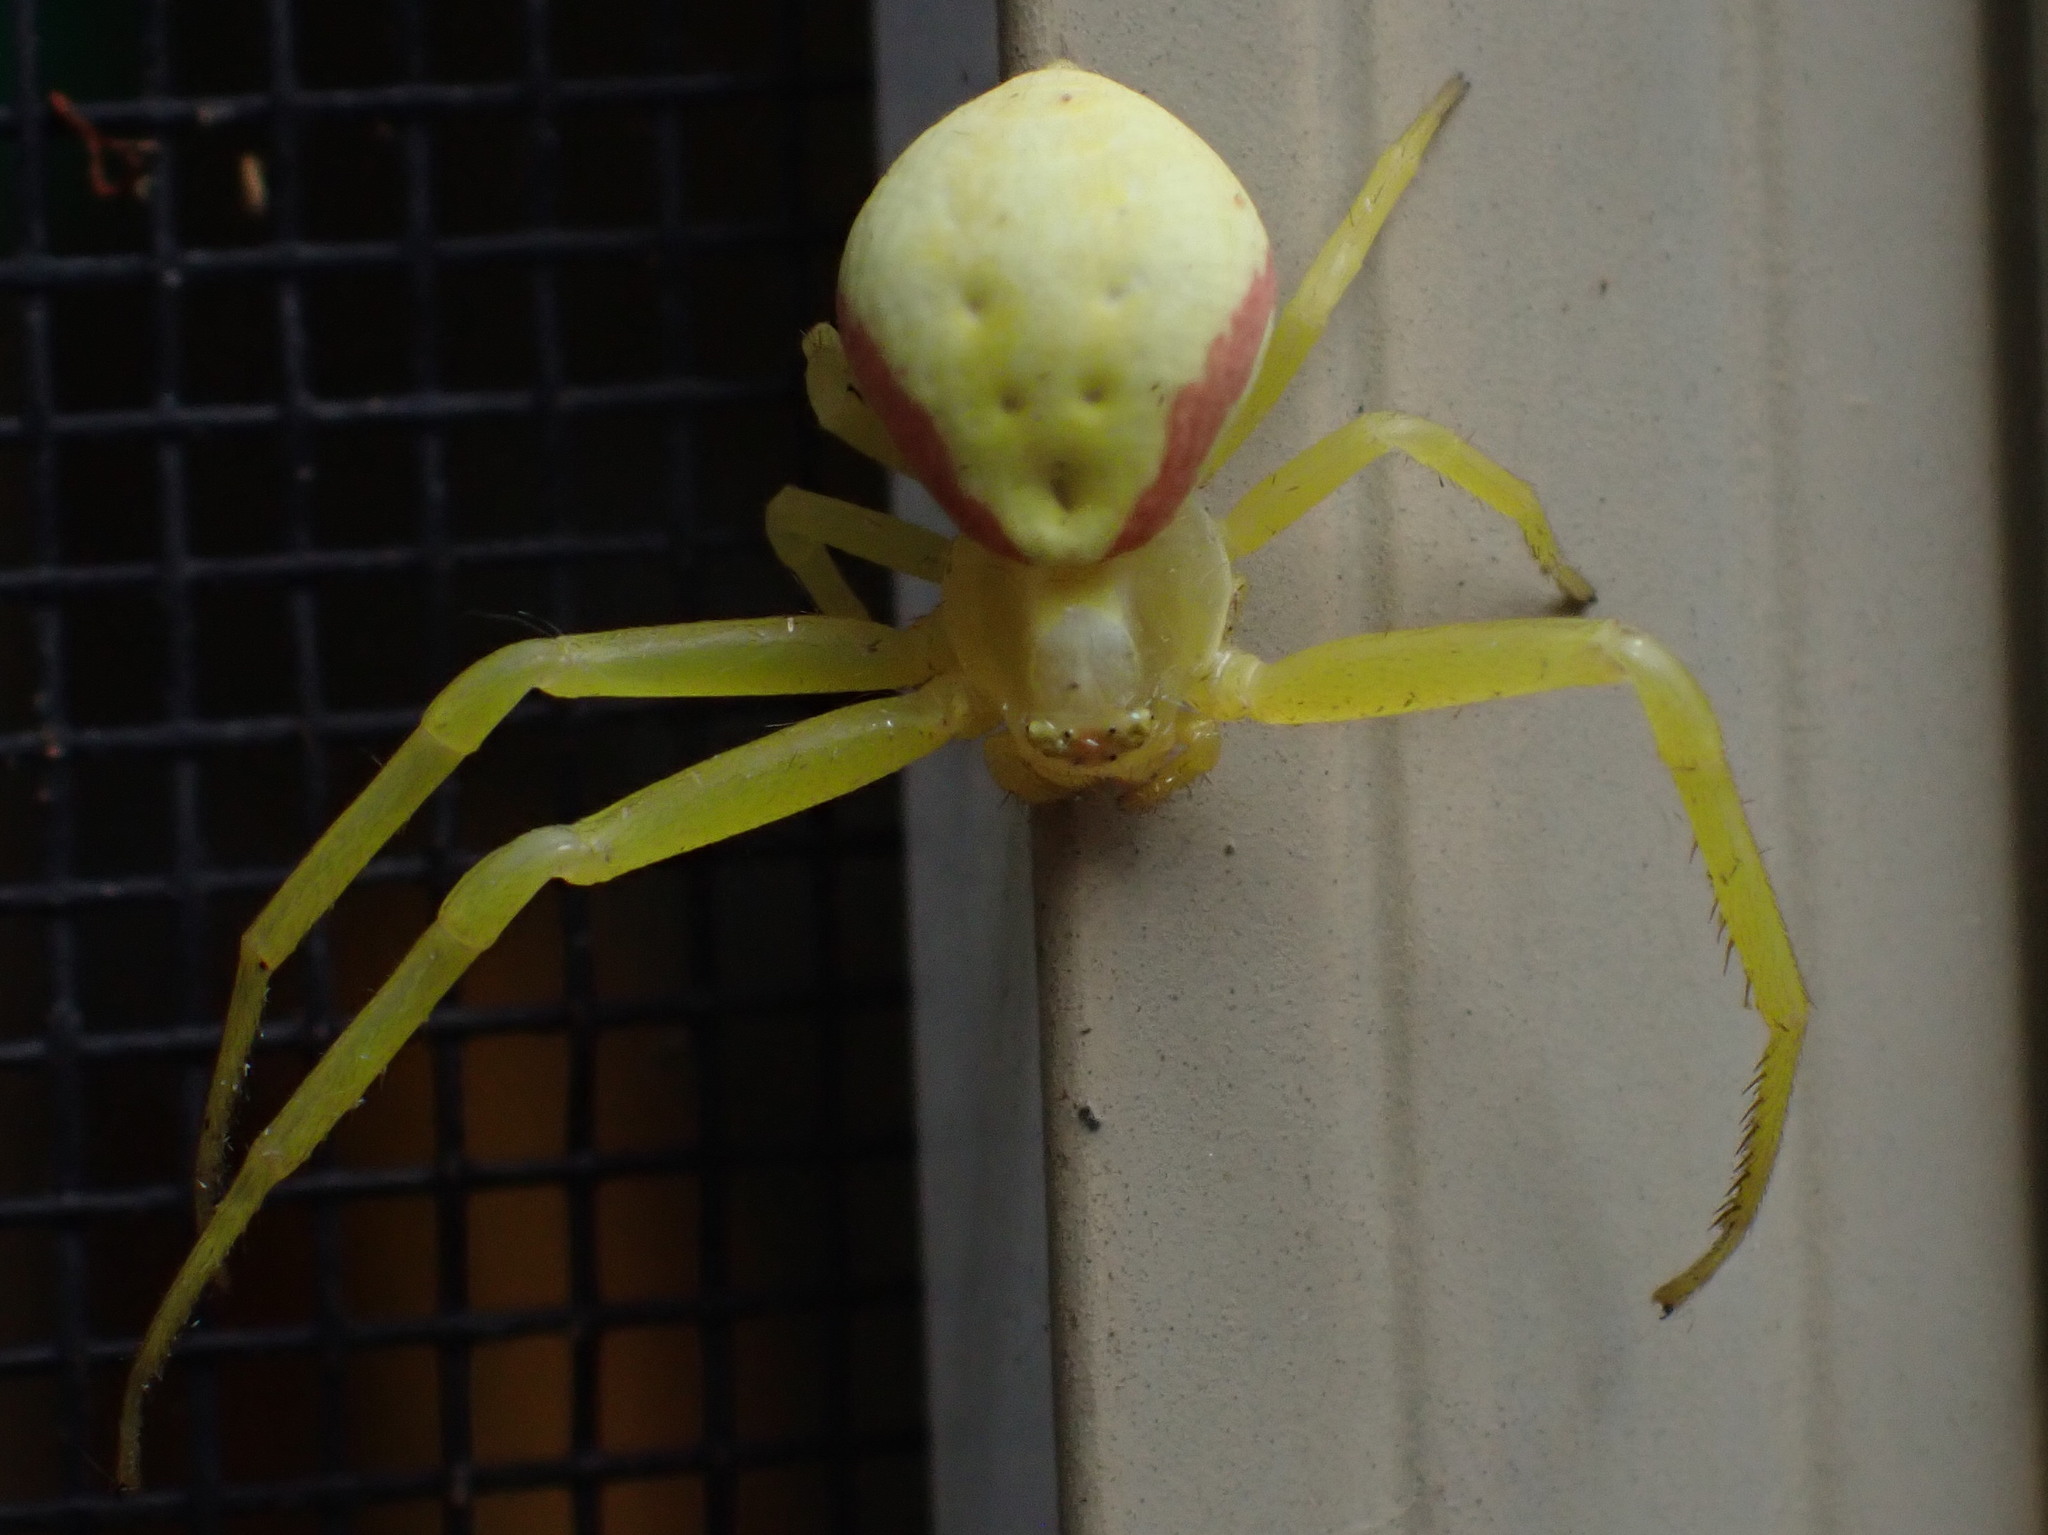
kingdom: Animalia
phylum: Arthropoda
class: Arachnida
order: Araneae
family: Thomisidae
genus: Misumena
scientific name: Misumena vatia
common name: Goldenrod crab spider
